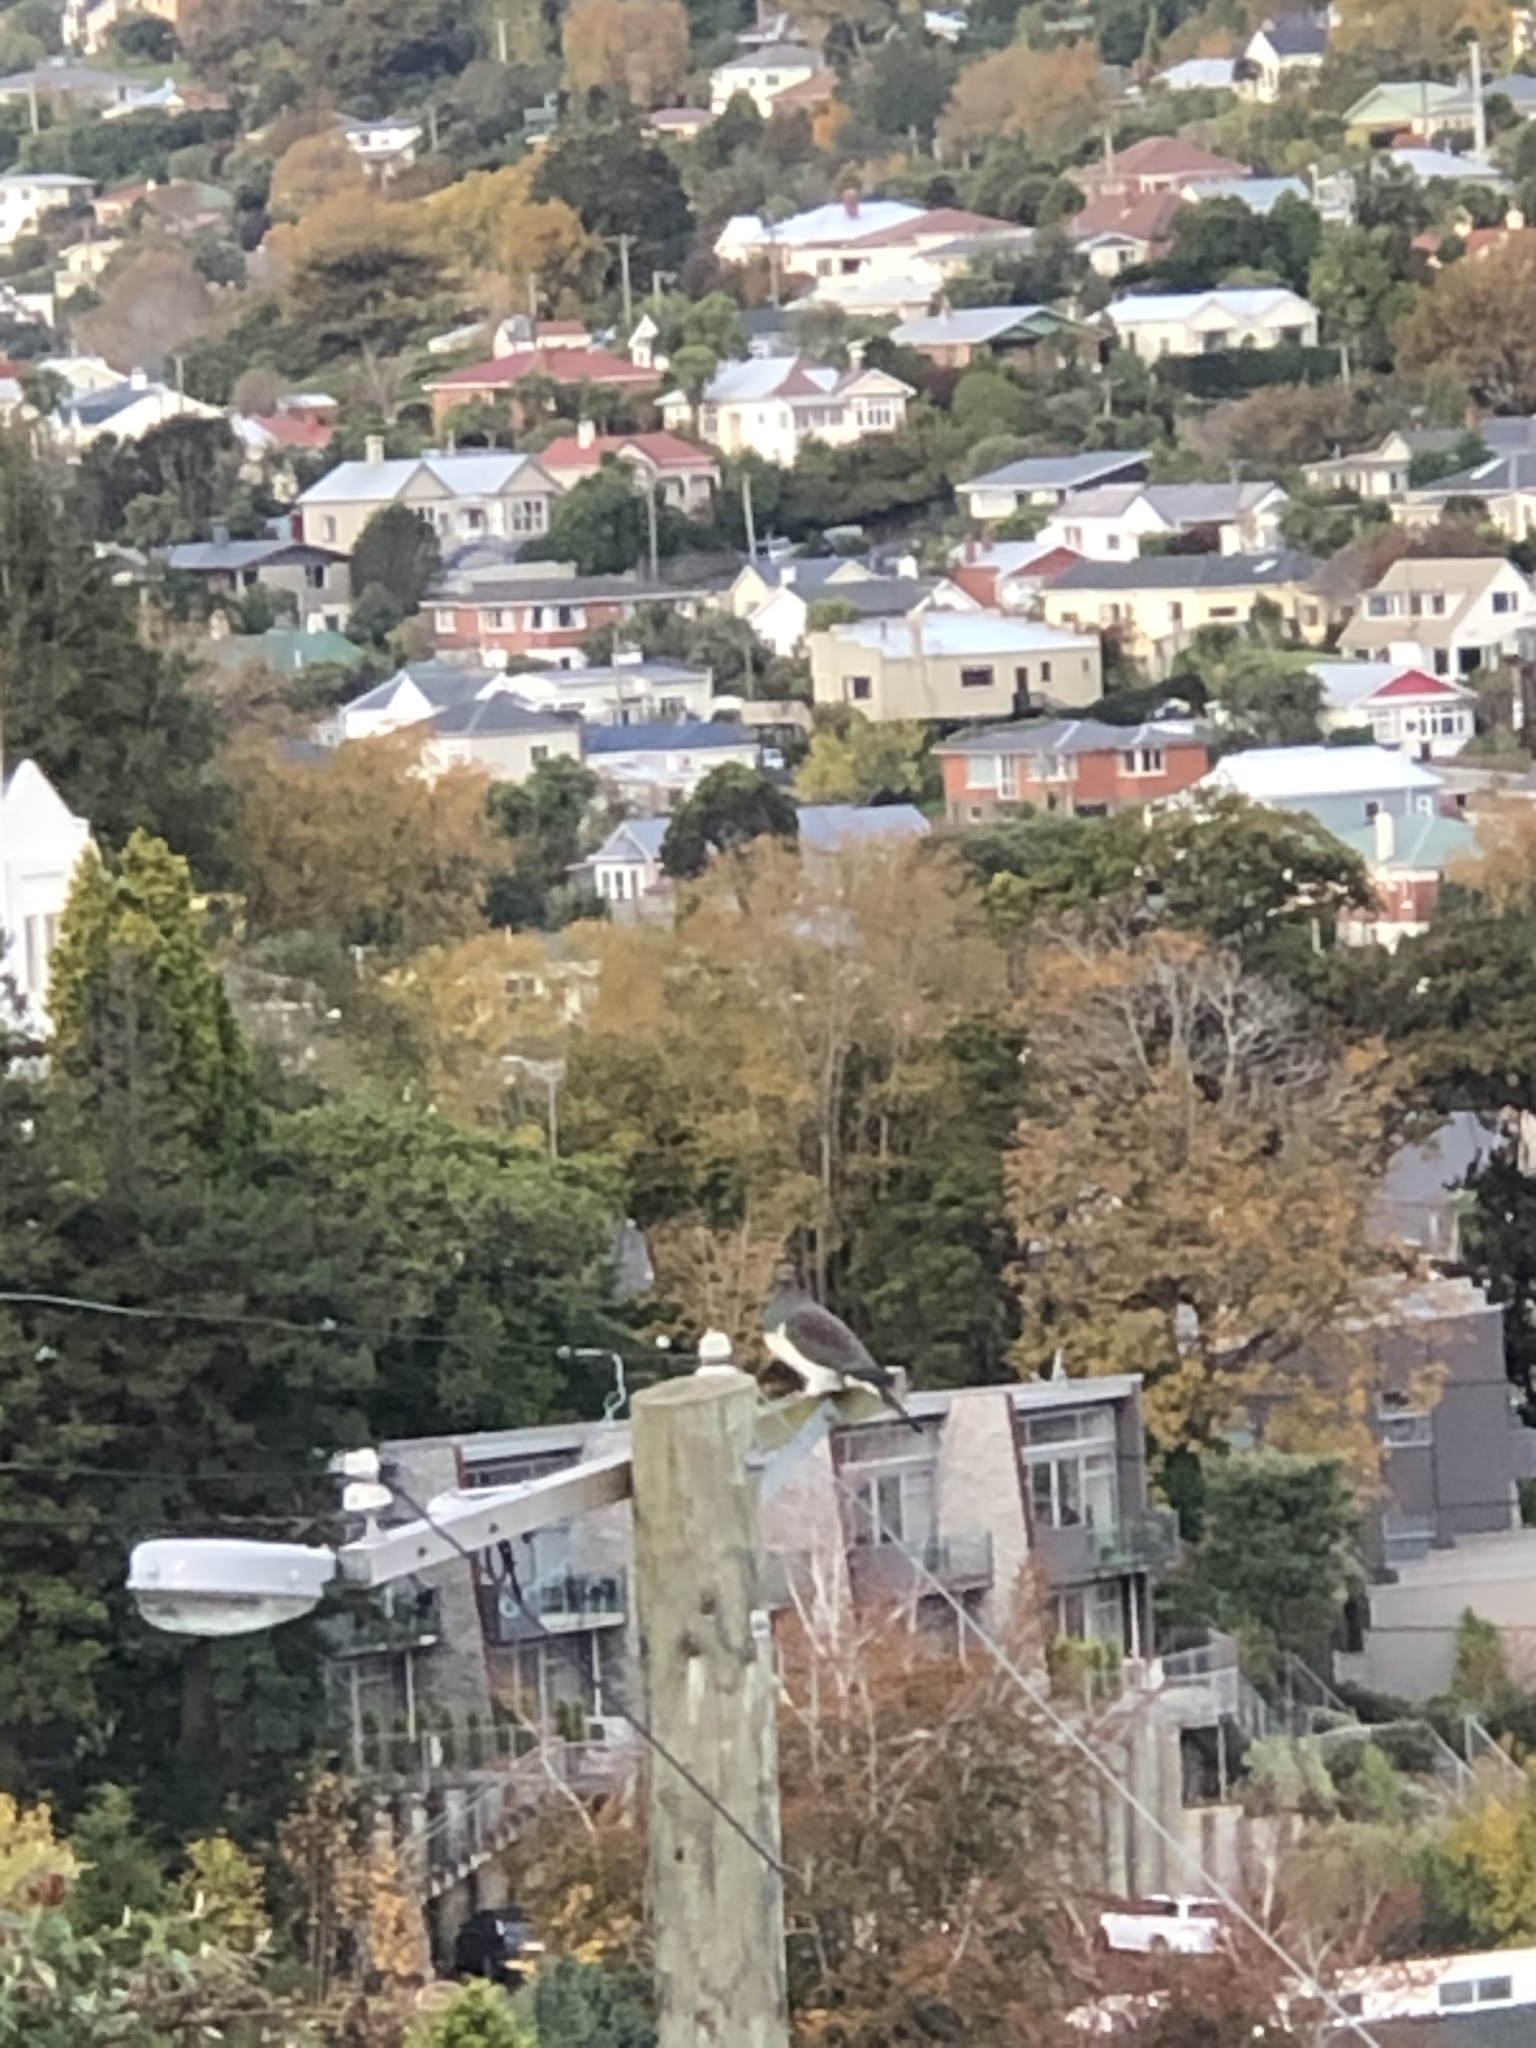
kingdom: Animalia
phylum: Chordata
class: Aves
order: Columbiformes
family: Columbidae
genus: Hemiphaga
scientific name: Hemiphaga novaeseelandiae
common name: New zealand pigeon
